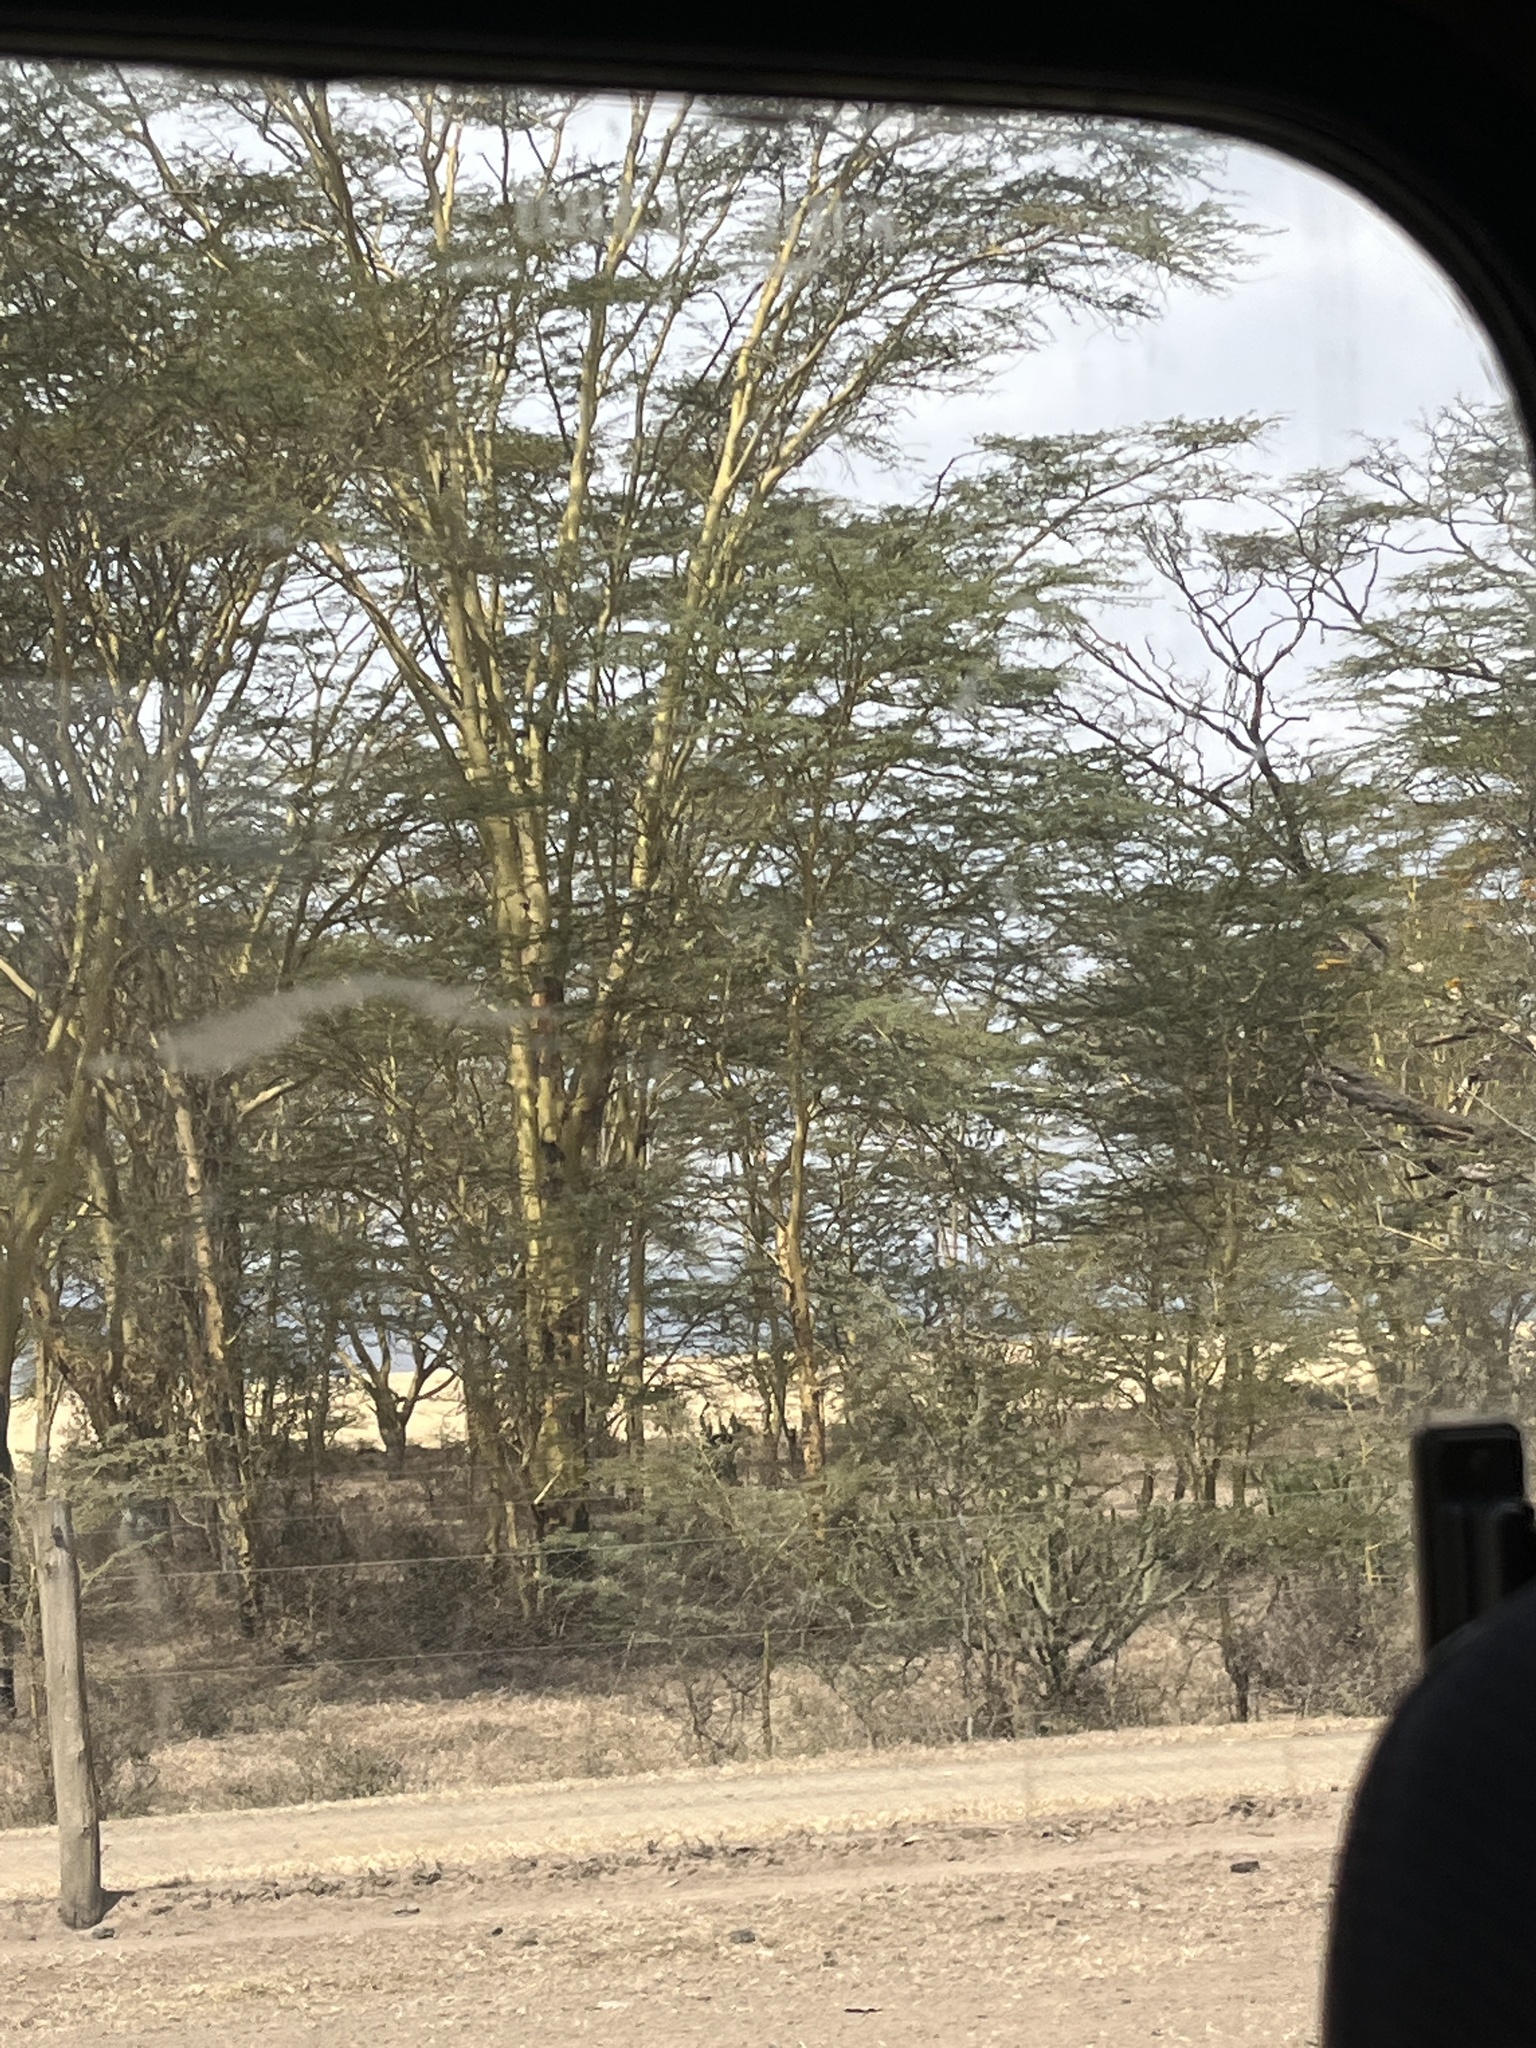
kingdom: Plantae
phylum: Tracheophyta
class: Magnoliopsida
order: Fabales
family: Fabaceae
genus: Vachellia
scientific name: Vachellia xanthophloea
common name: Fever tree
